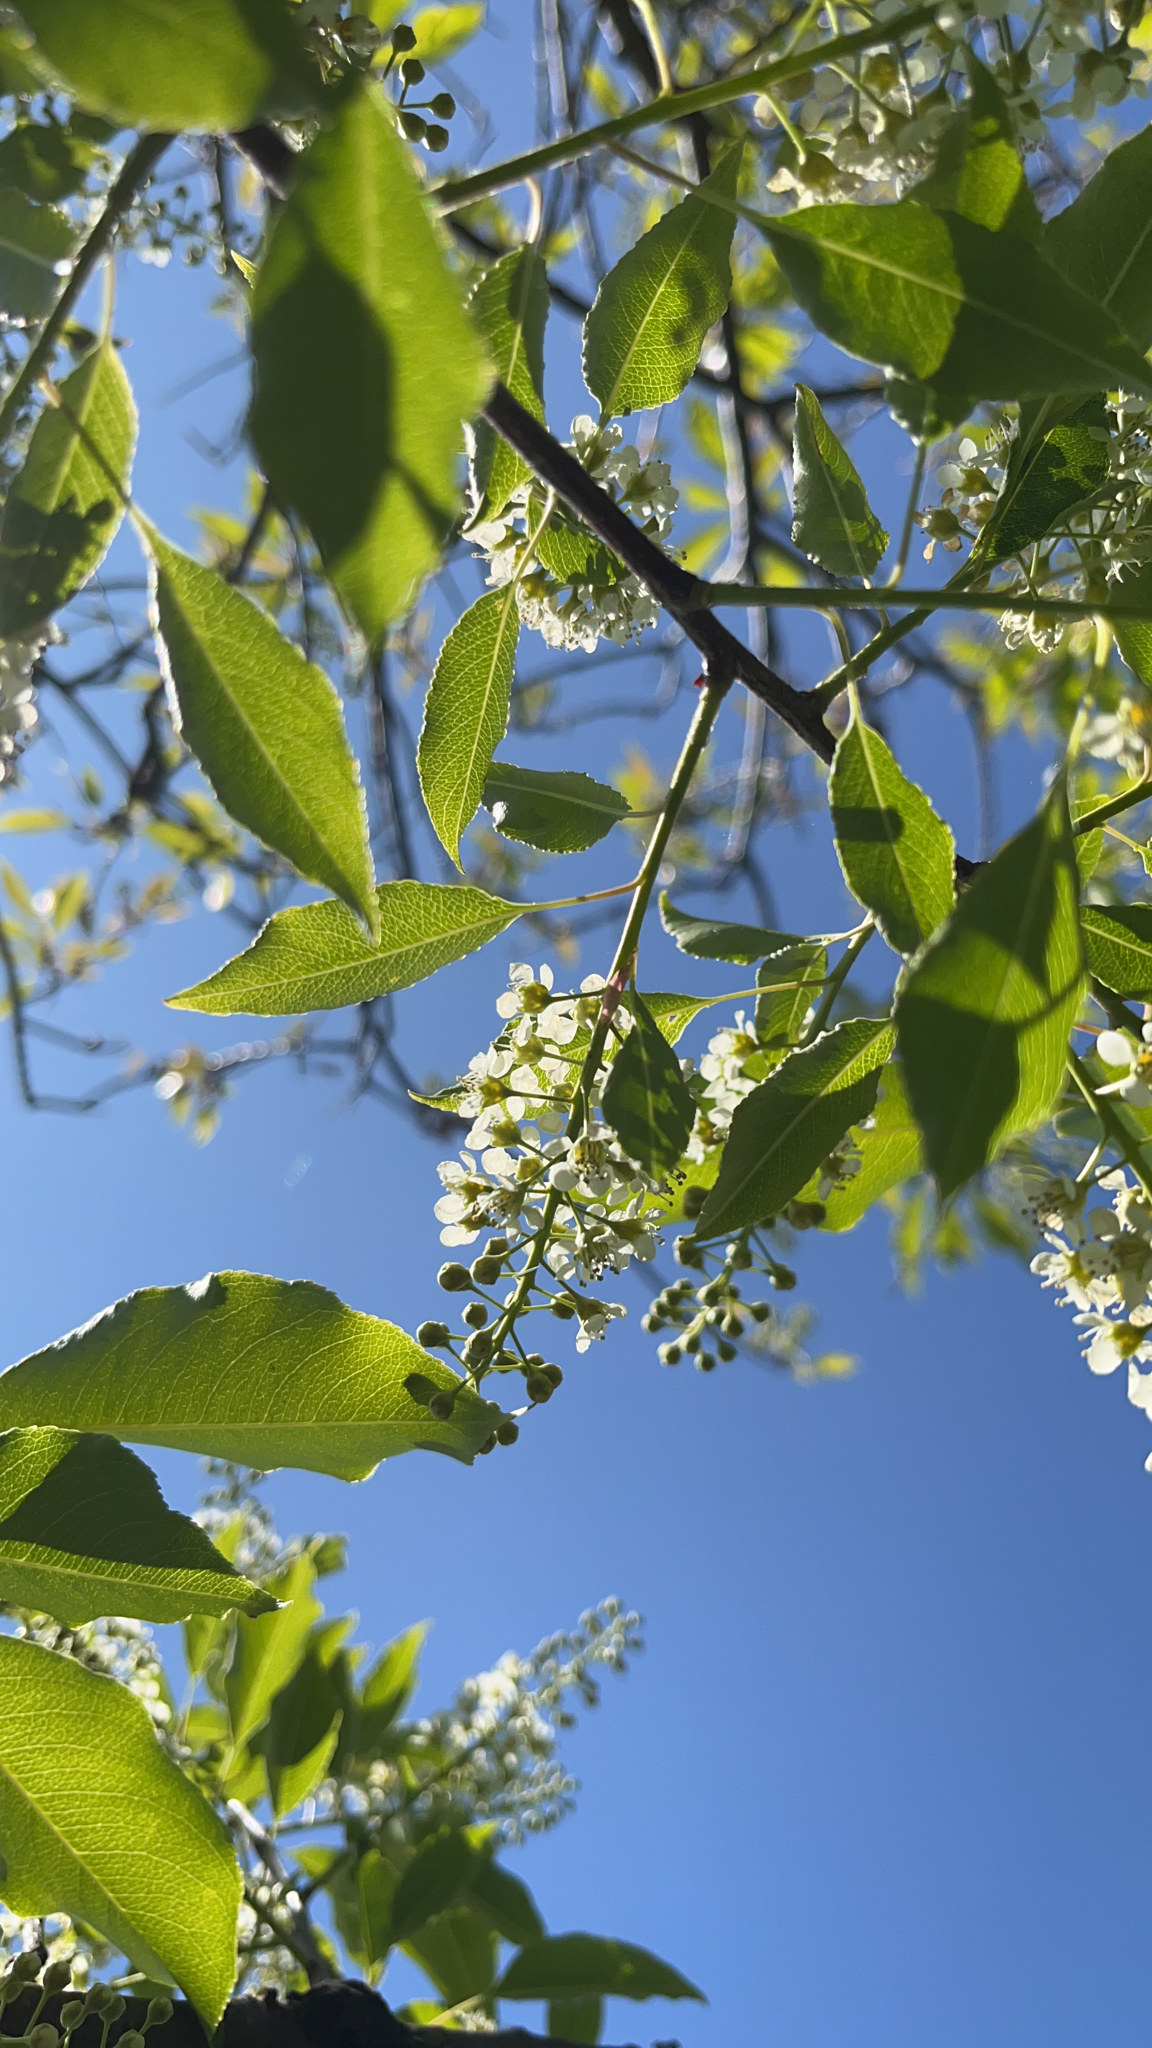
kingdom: Plantae
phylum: Tracheophyta
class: Magnoliopsida
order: Rosales
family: Rosaceae
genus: Prunus
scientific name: Prunus serotina
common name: Black cherry
